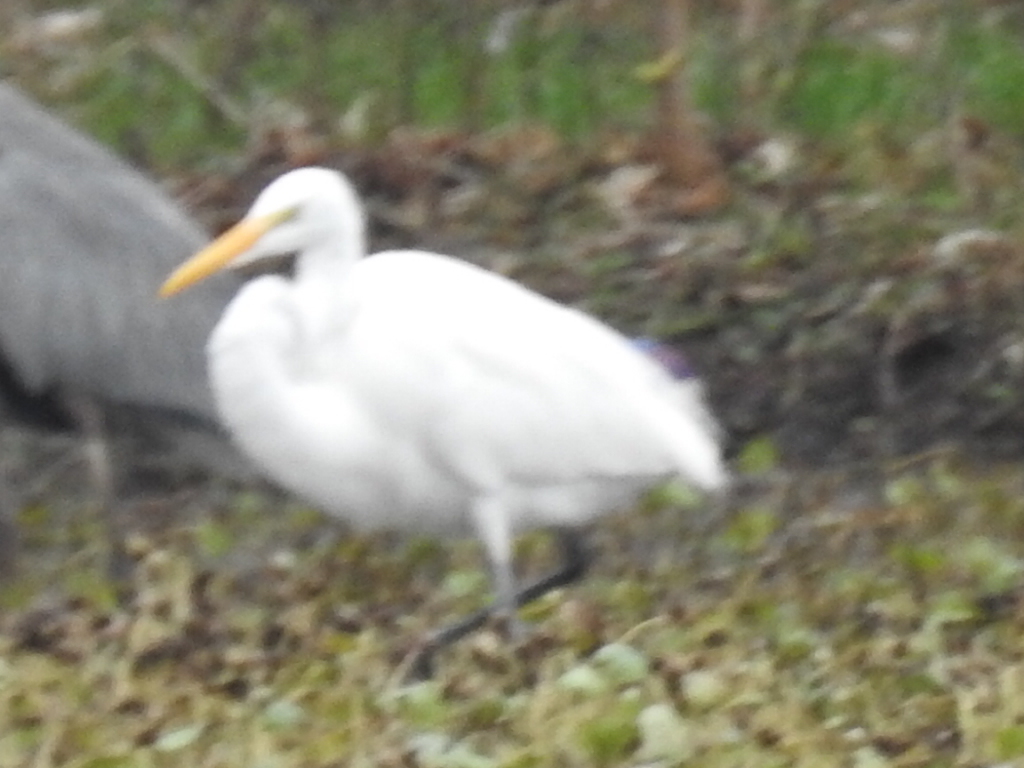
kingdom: Animalia
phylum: Chordata
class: Aves
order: Pelecaniformes
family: Ardeidae
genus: Ardea
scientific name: Ardea alba
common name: Great egret
